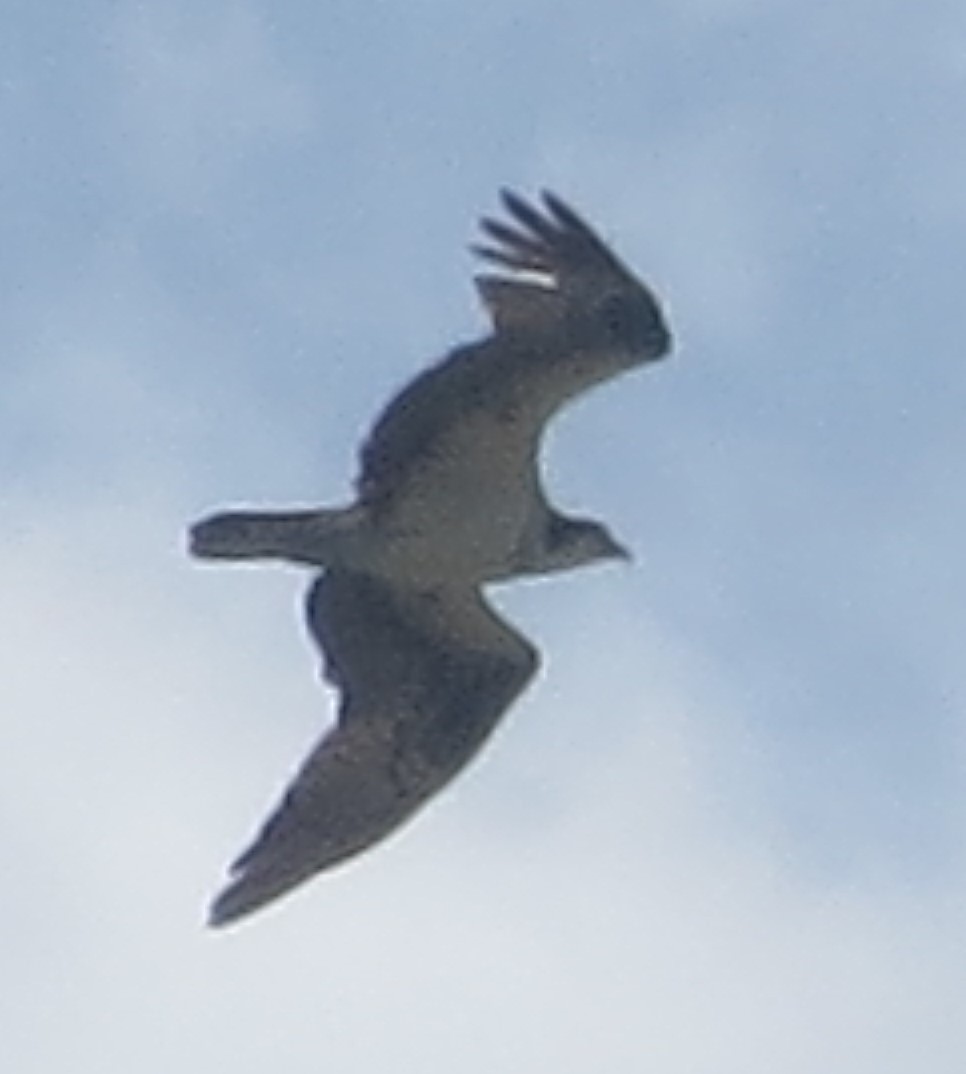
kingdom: Animalia
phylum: Chordata
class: Aves
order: Accipitriformes
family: Pandionidae
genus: Pandion
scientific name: Pandion haliaetus
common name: Osprey
